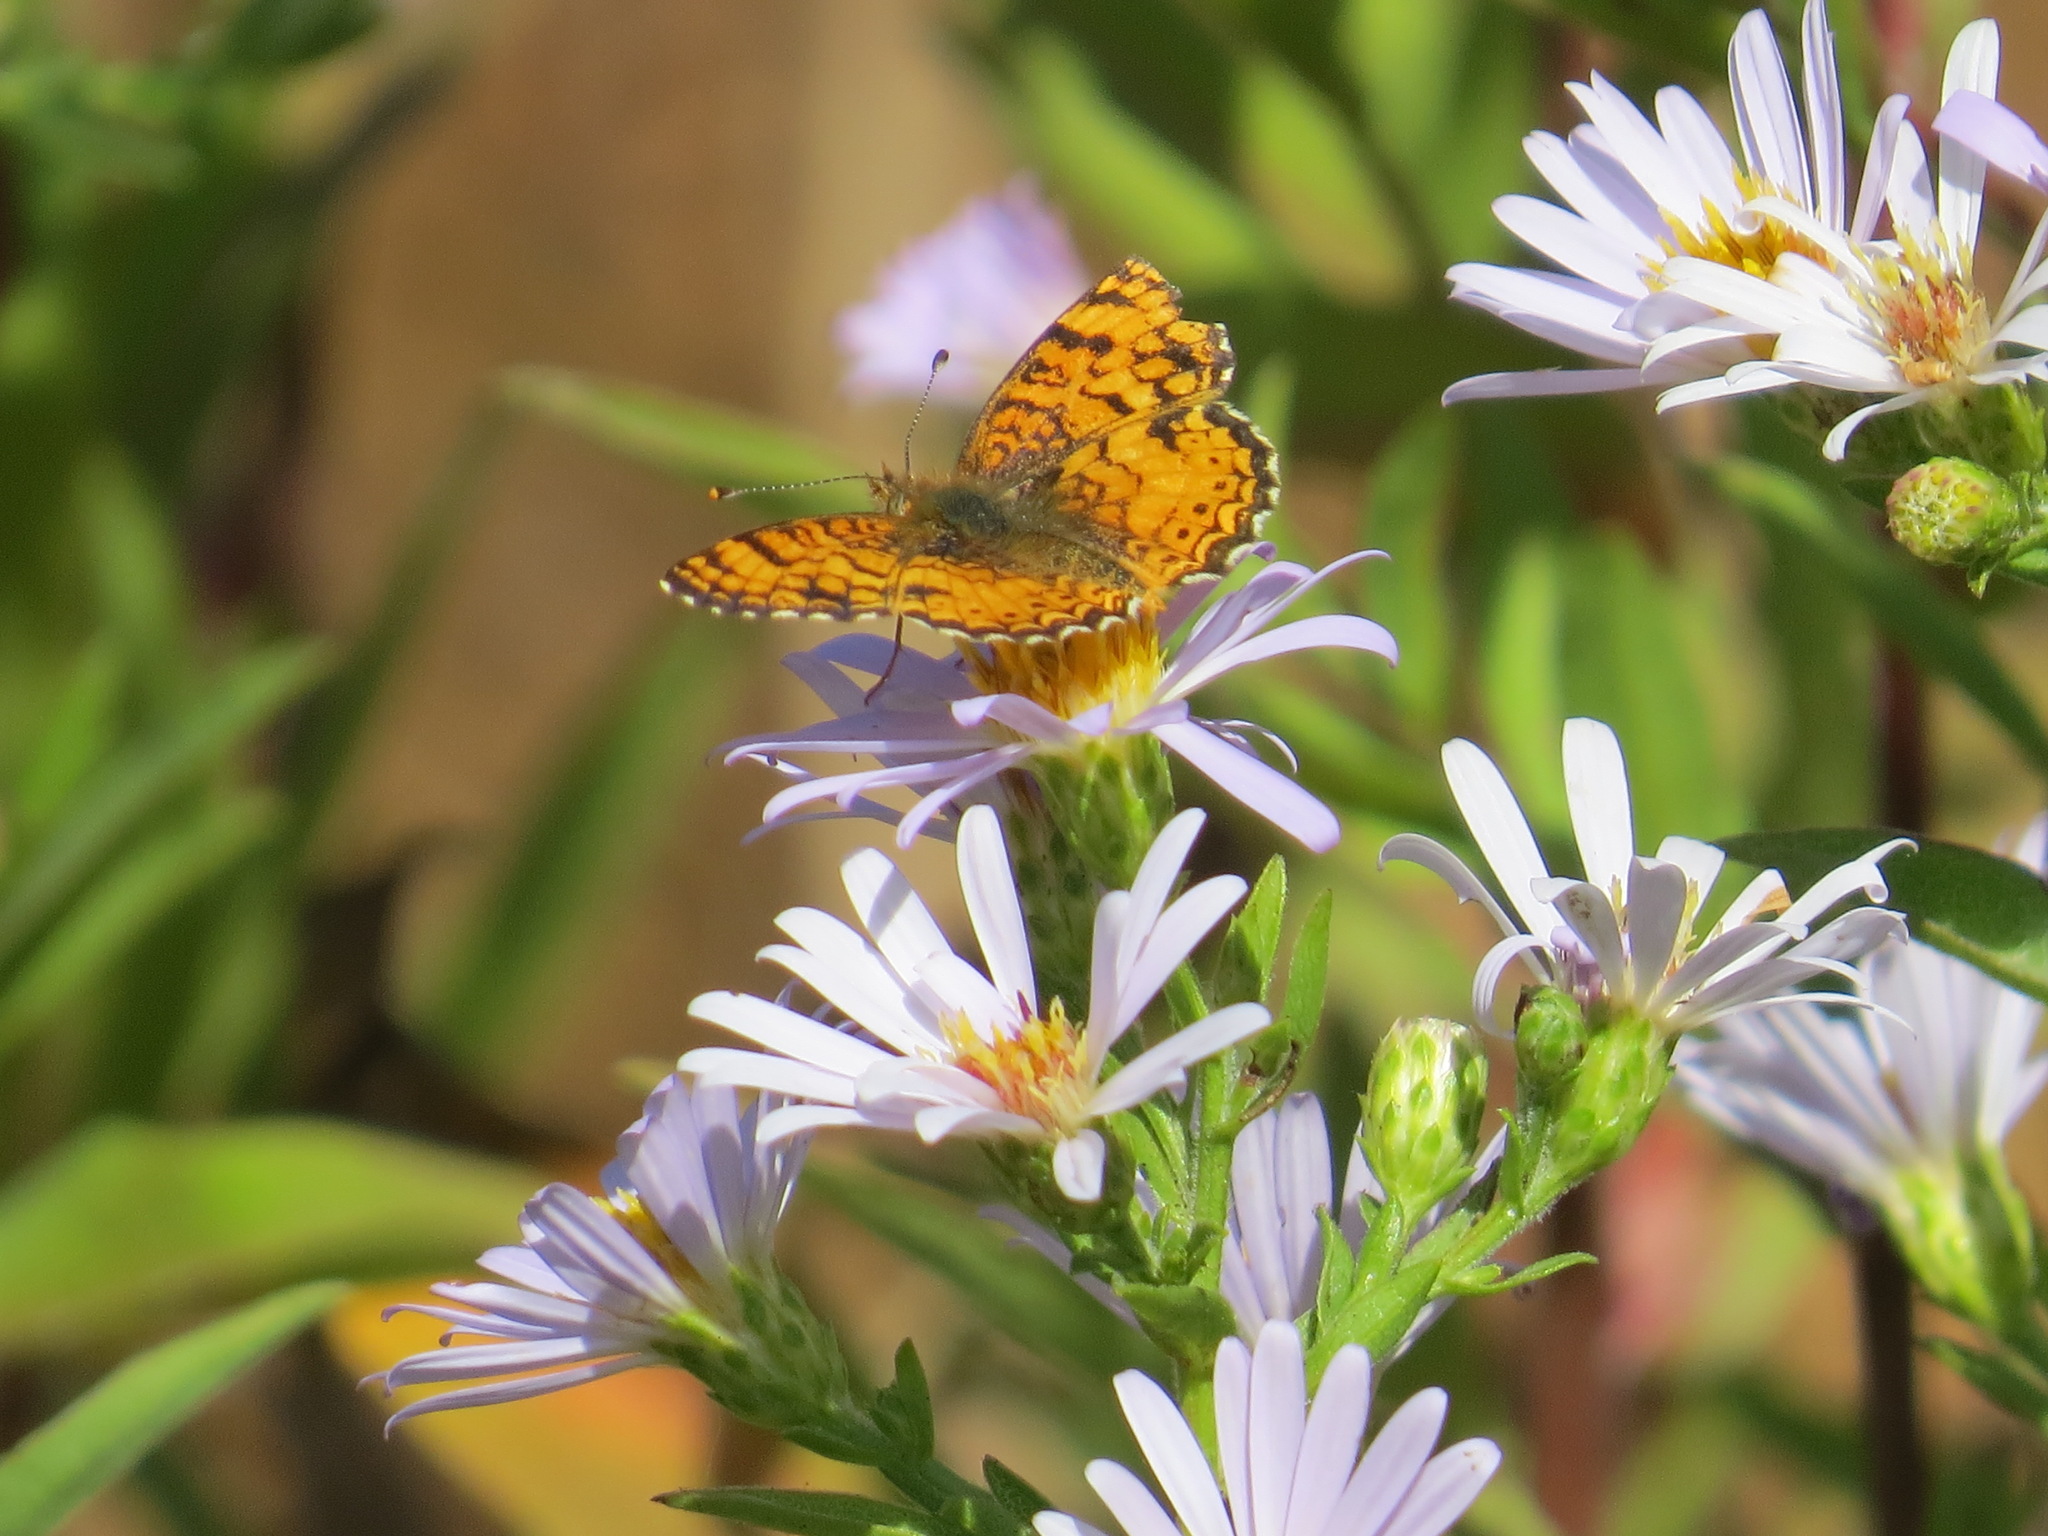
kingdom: Animalia
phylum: Arthropoda
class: Insecta
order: Lepidoptera
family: Nymphalidae
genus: Eresia
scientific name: Eresia aveyrona
